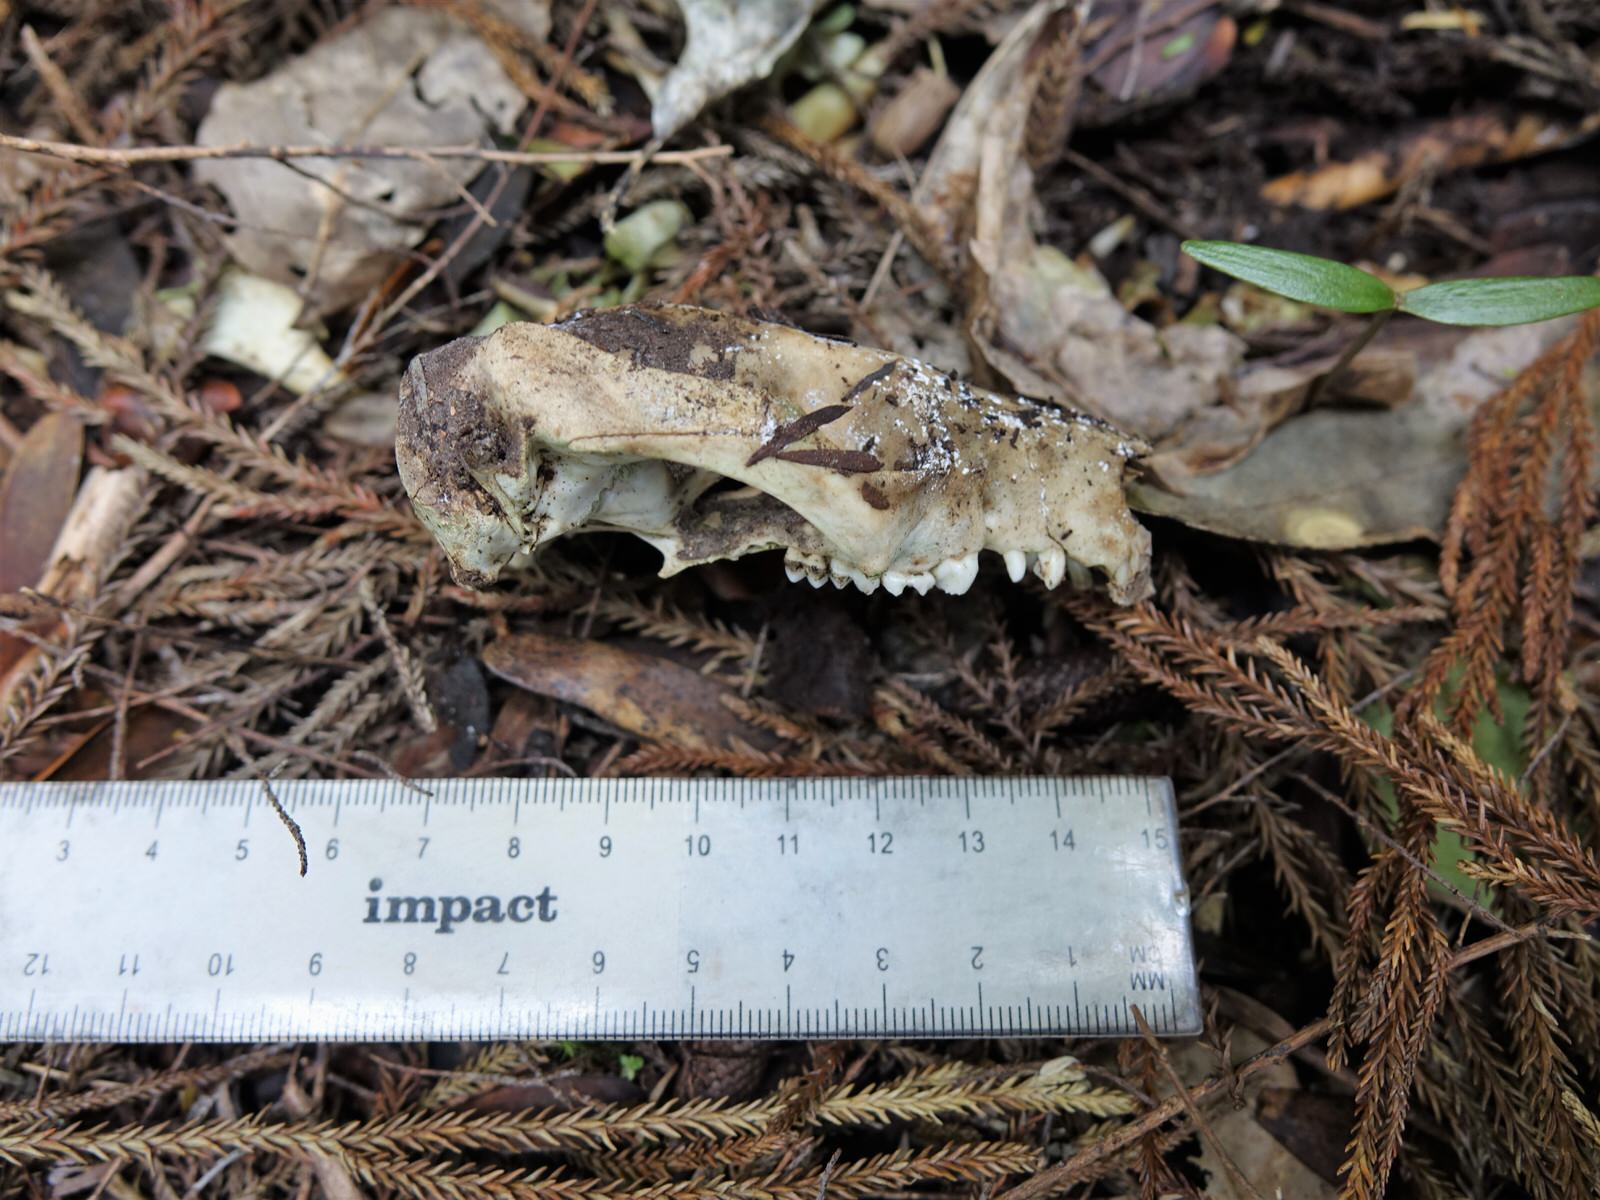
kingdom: Animalia
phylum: Chordata
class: Mammalia
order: Diprotodontia
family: Phalangeridae
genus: Trichosurus
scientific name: Trichosurus vulpecula
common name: Common brushtail
